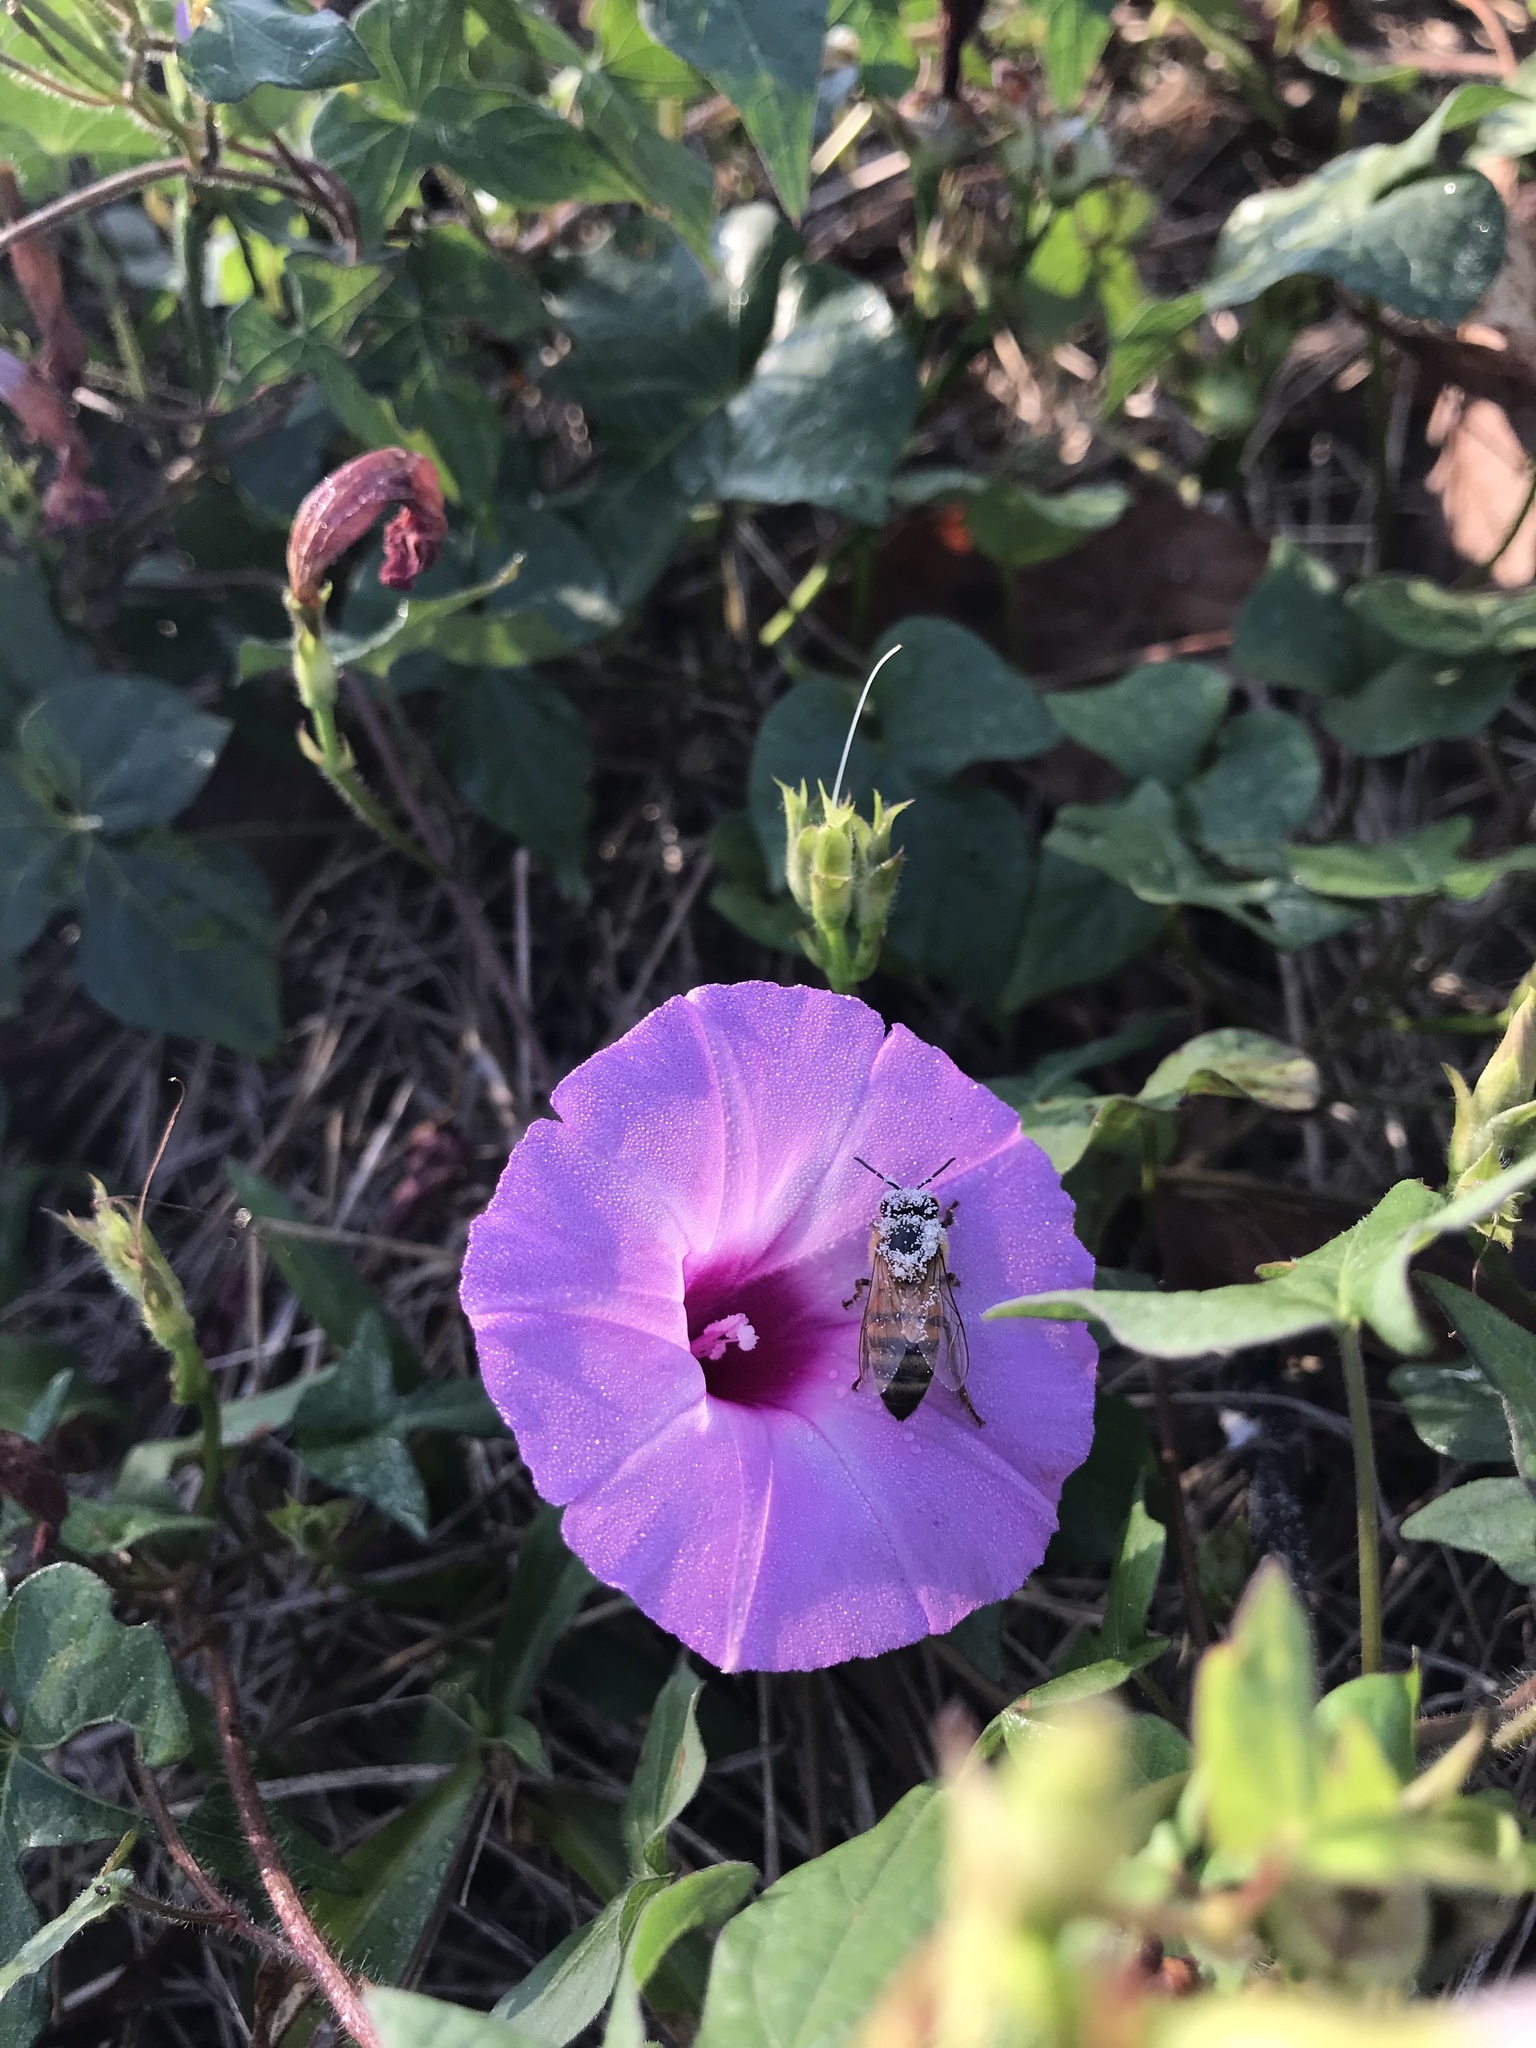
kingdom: Animalia
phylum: Arthropoda
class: Insecta
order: Hymenoptera
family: Apidae
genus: Apis
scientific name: Apis mellifera
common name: Honey bee
